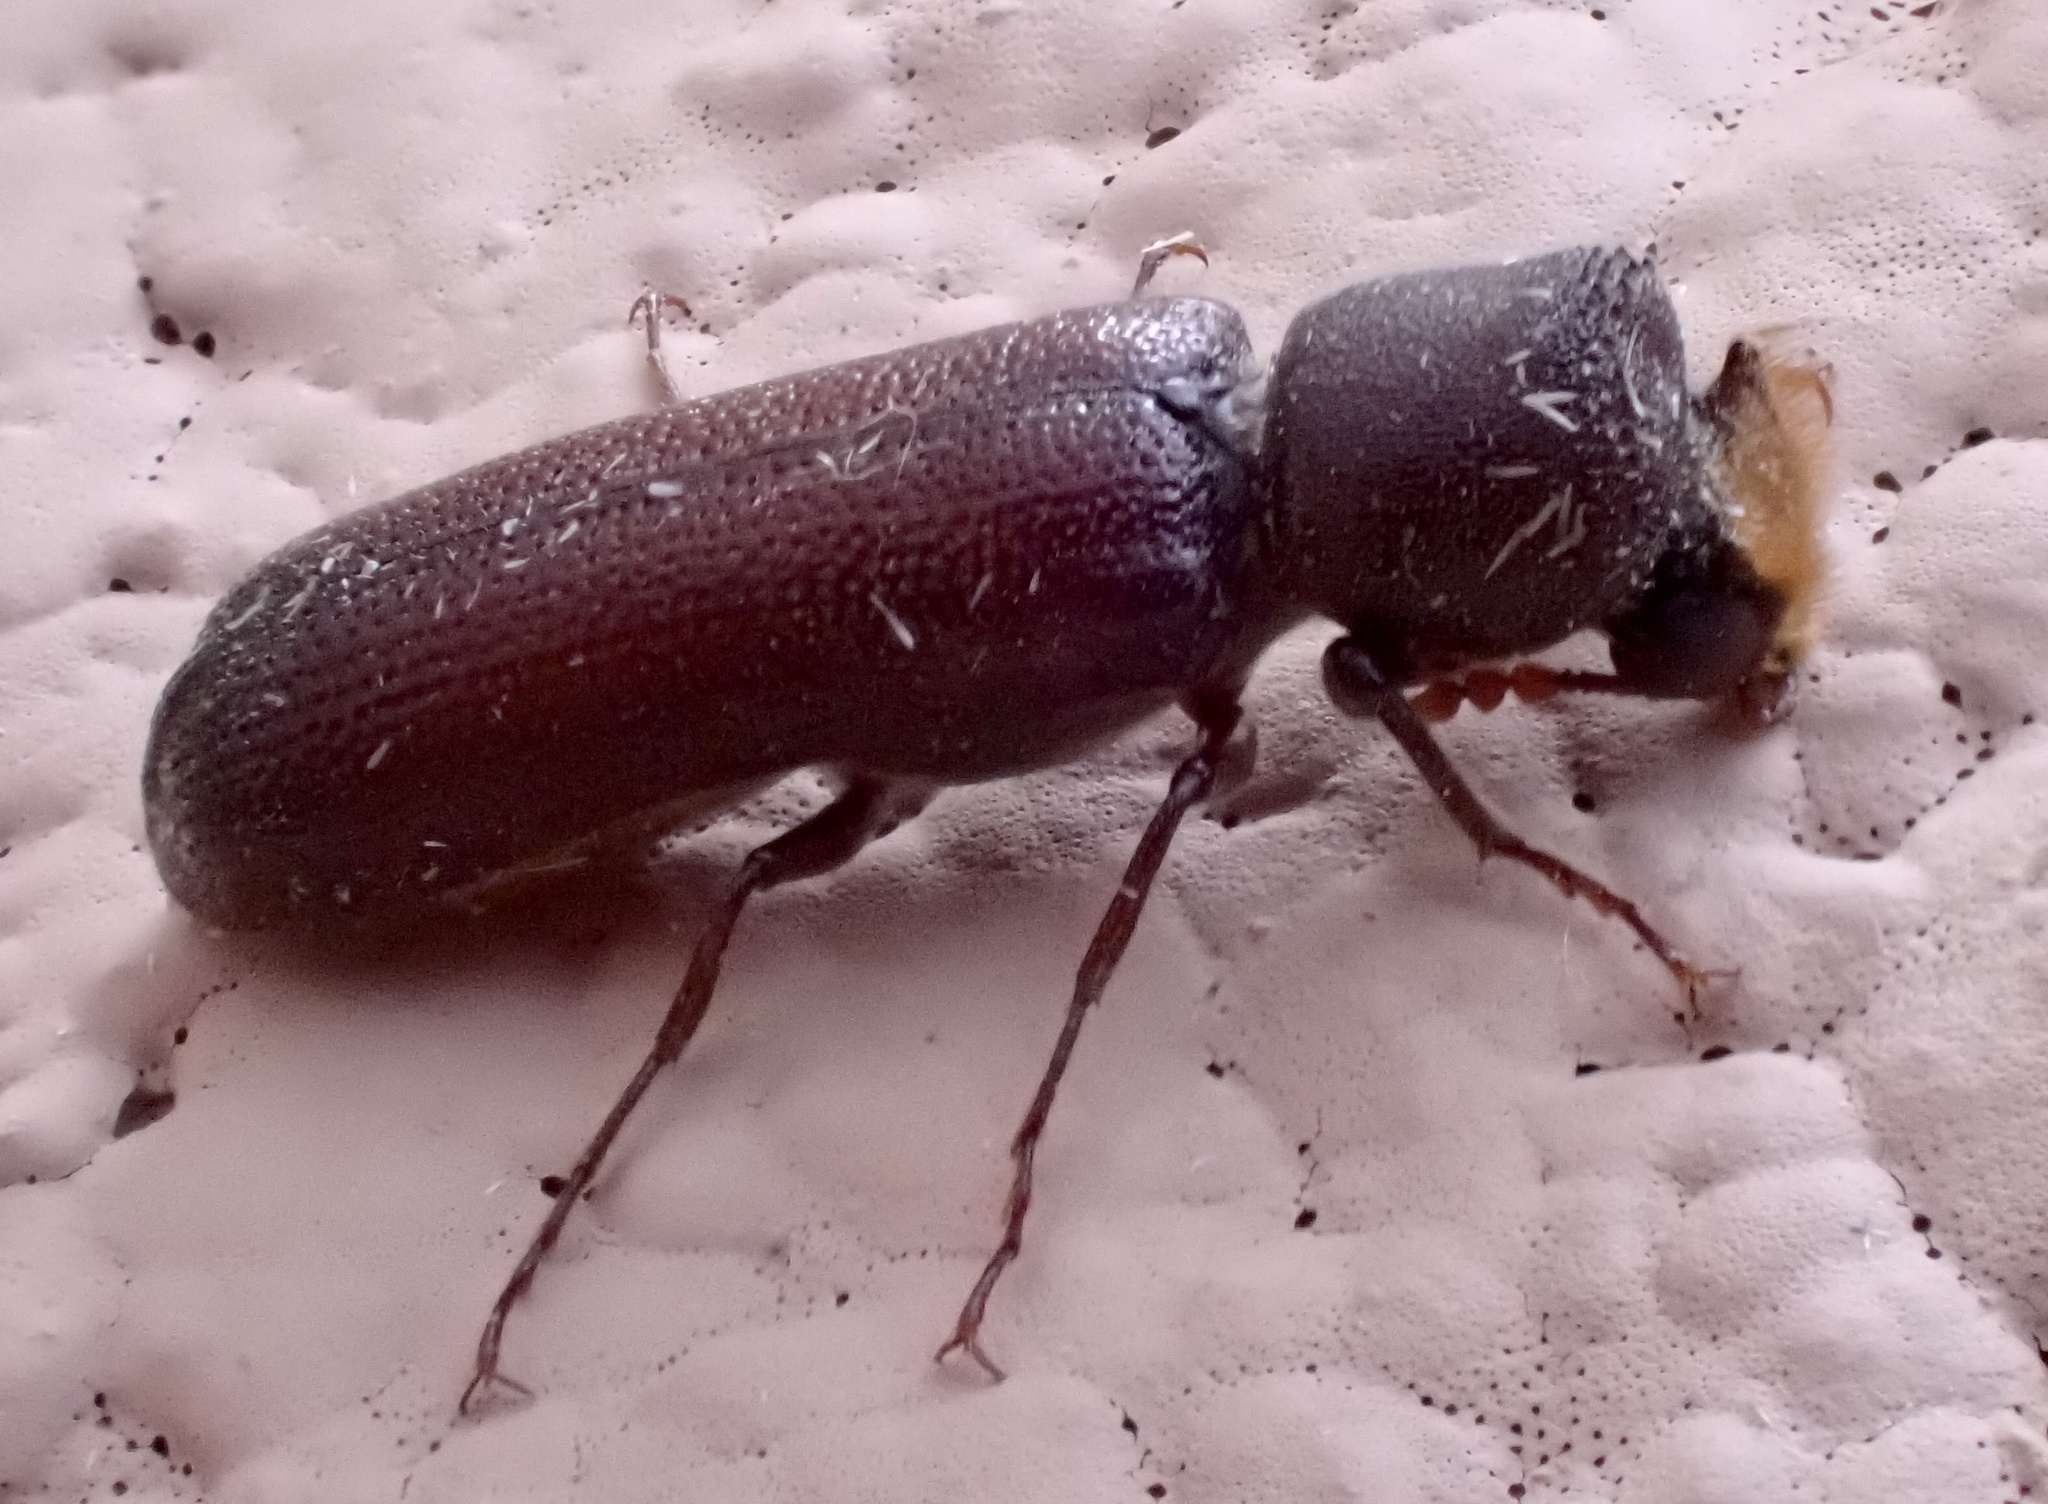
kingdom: Animalia
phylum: Arthropoda
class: Insecta
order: Coleoptera
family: Bostrichidae
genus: Xylomedes
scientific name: Xylomedes coronata
